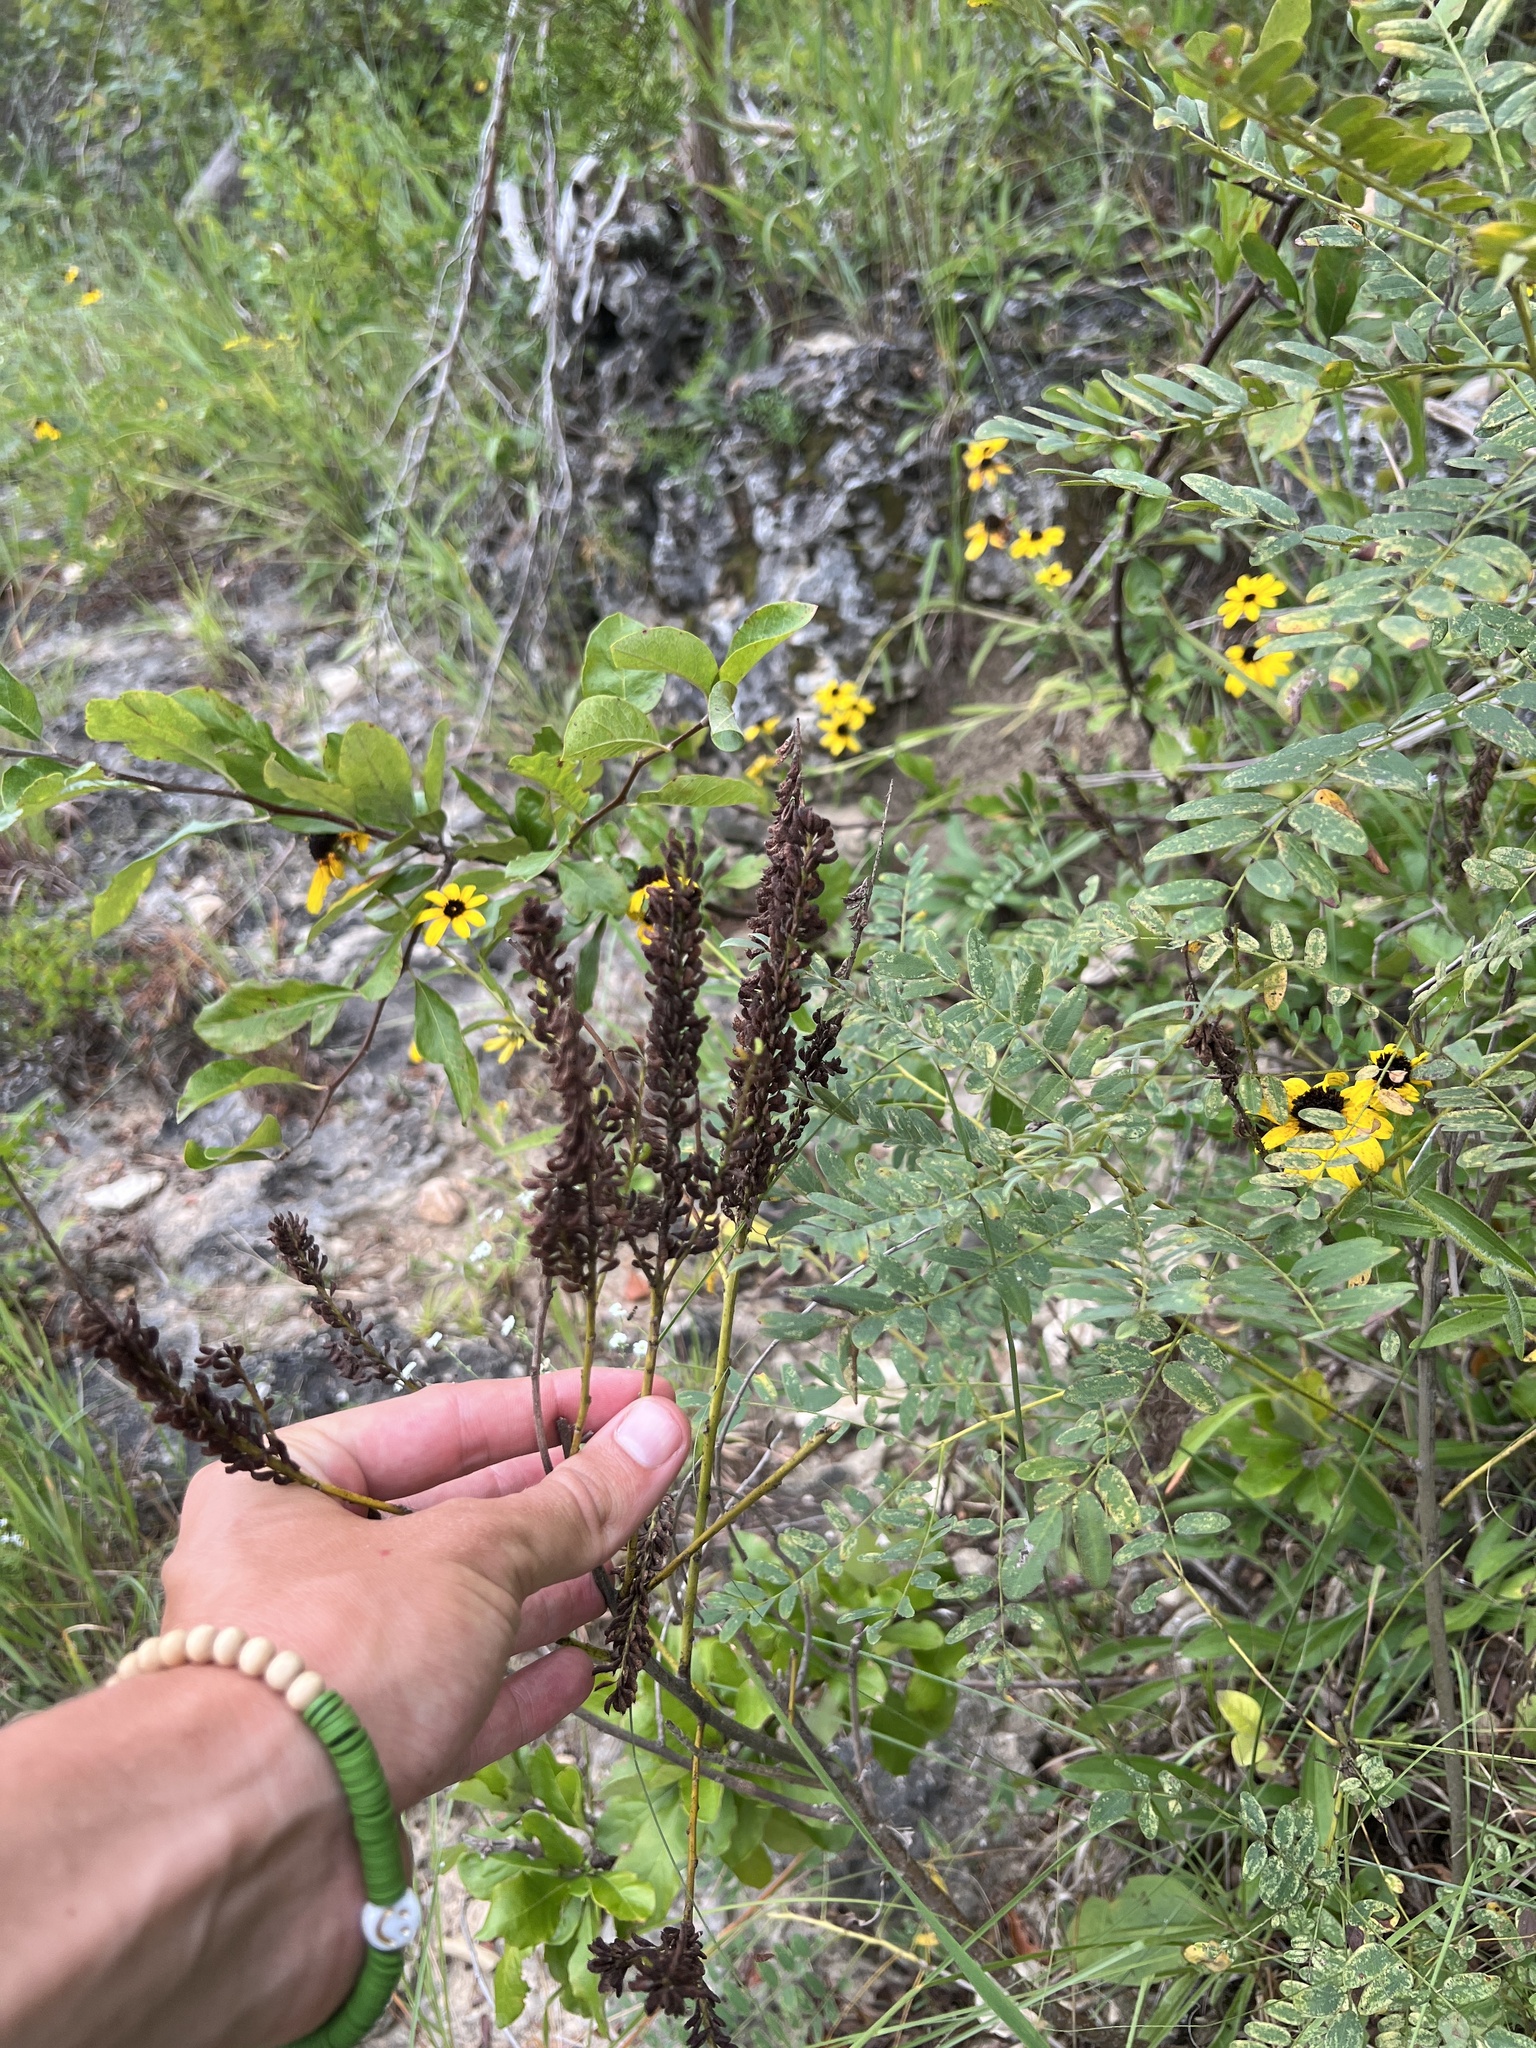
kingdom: Plantae
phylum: Tracheophyta
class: Magnoliopsida
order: Fabales
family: Fabaceae
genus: Amorpha
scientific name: Amorpha fruticosa
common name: False indigo
